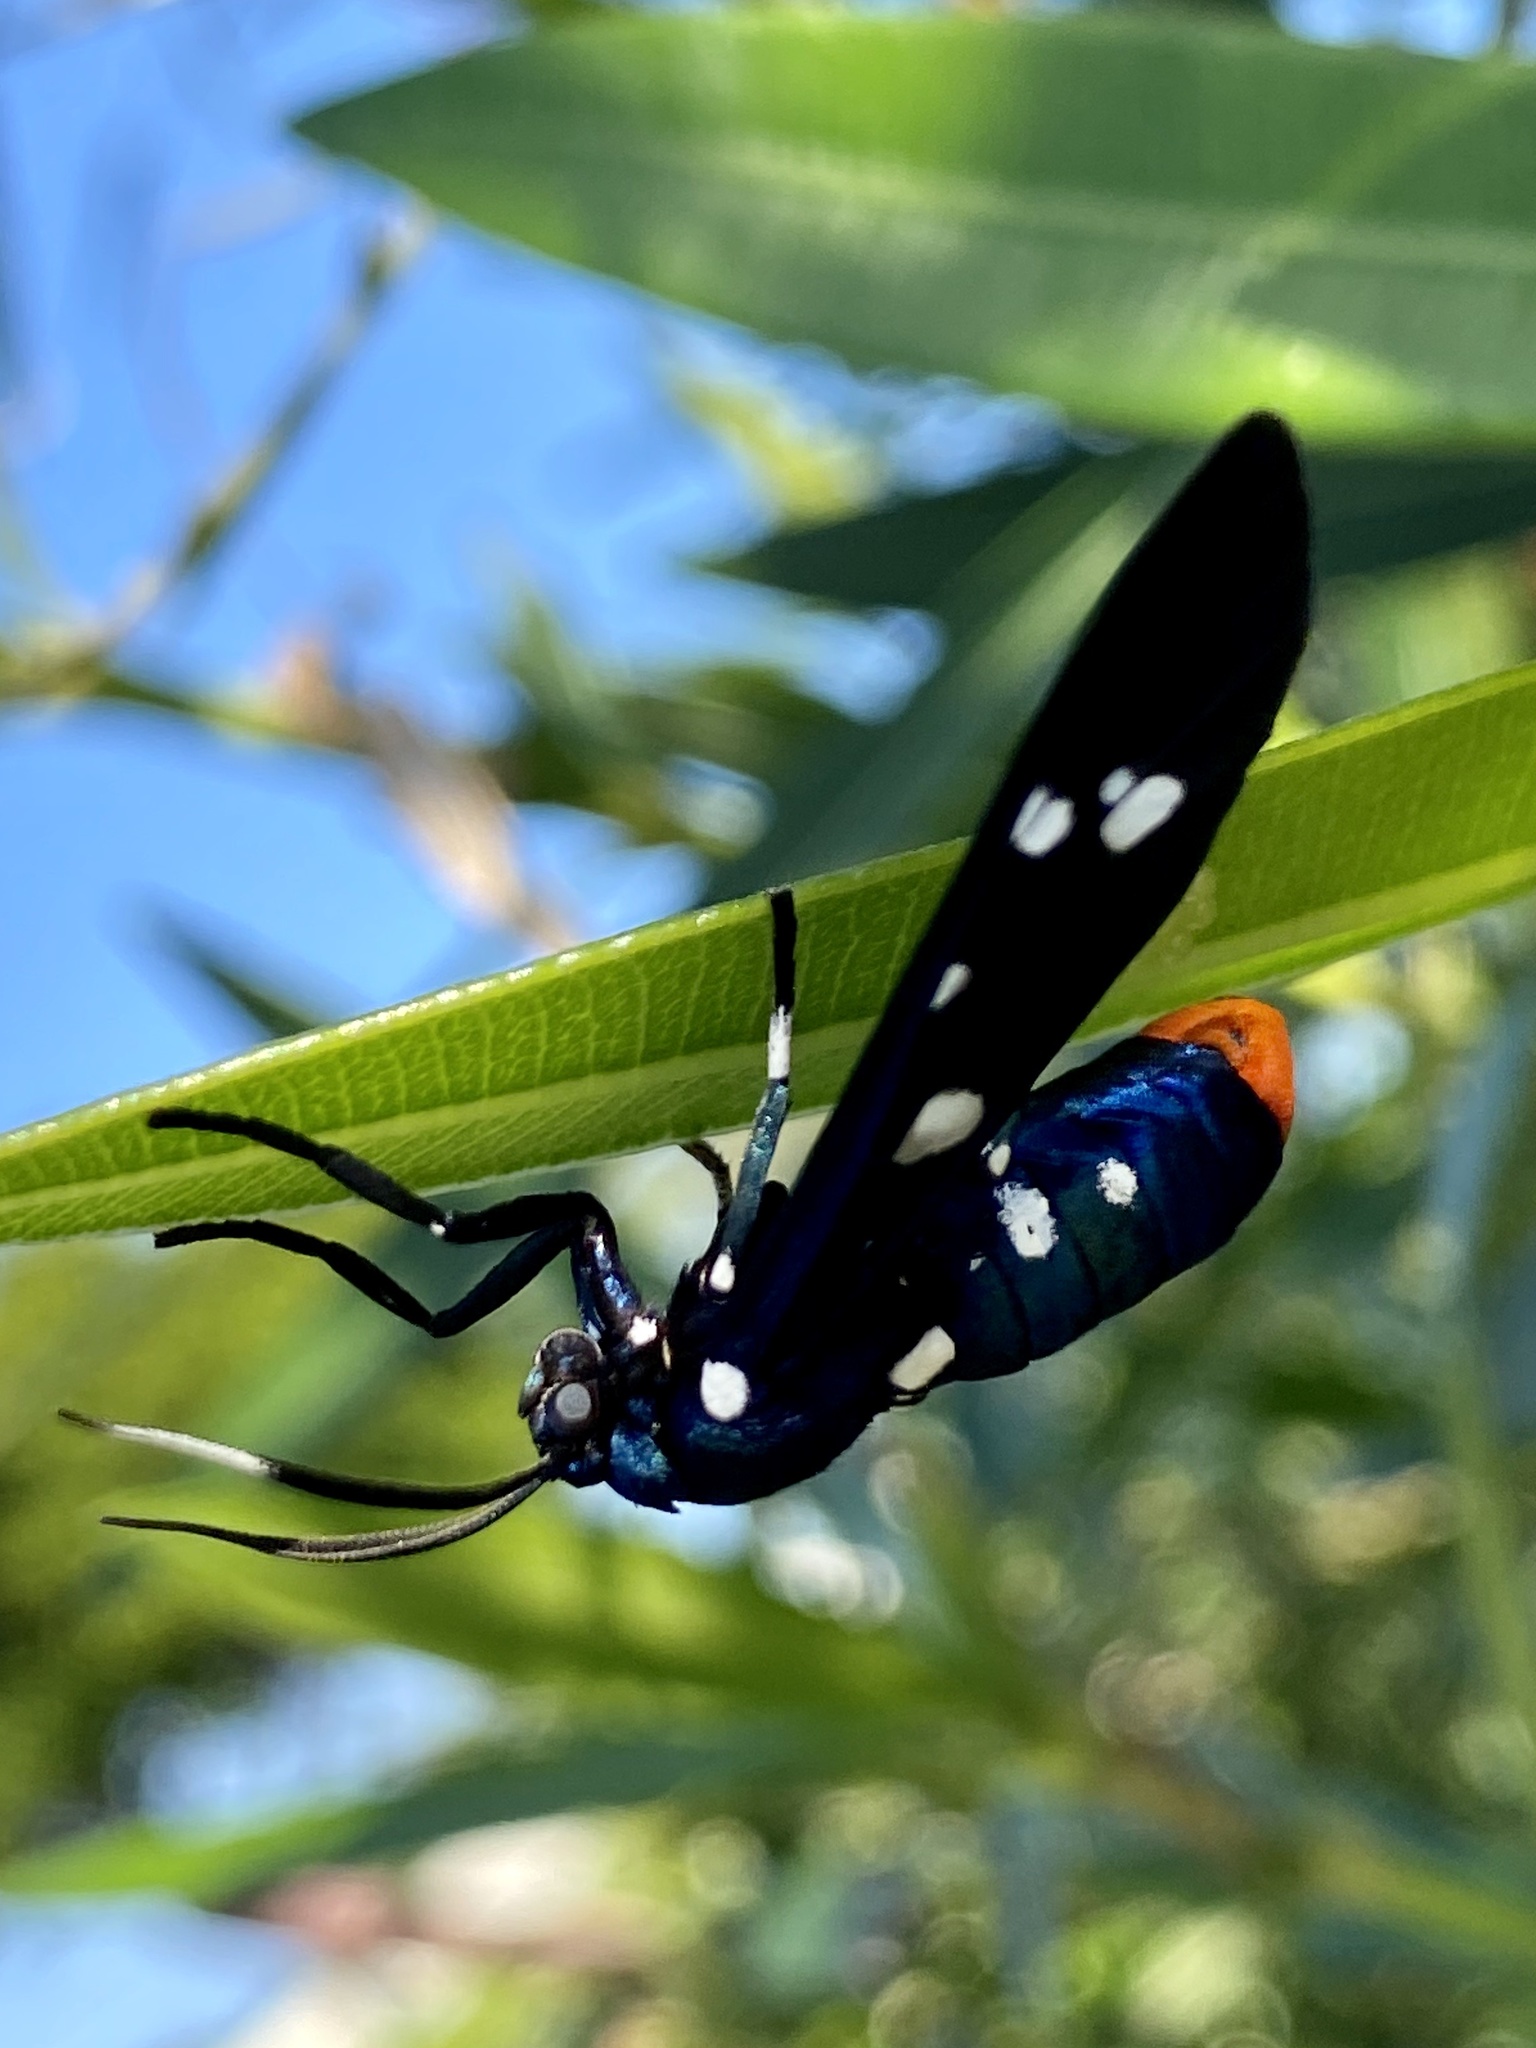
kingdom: Animalia
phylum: Arthropoda
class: Insecta
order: Lepidoptera
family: Erebidae
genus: Syntomeida
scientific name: Syntomeida epilais
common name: Polka-dot wasp moth
